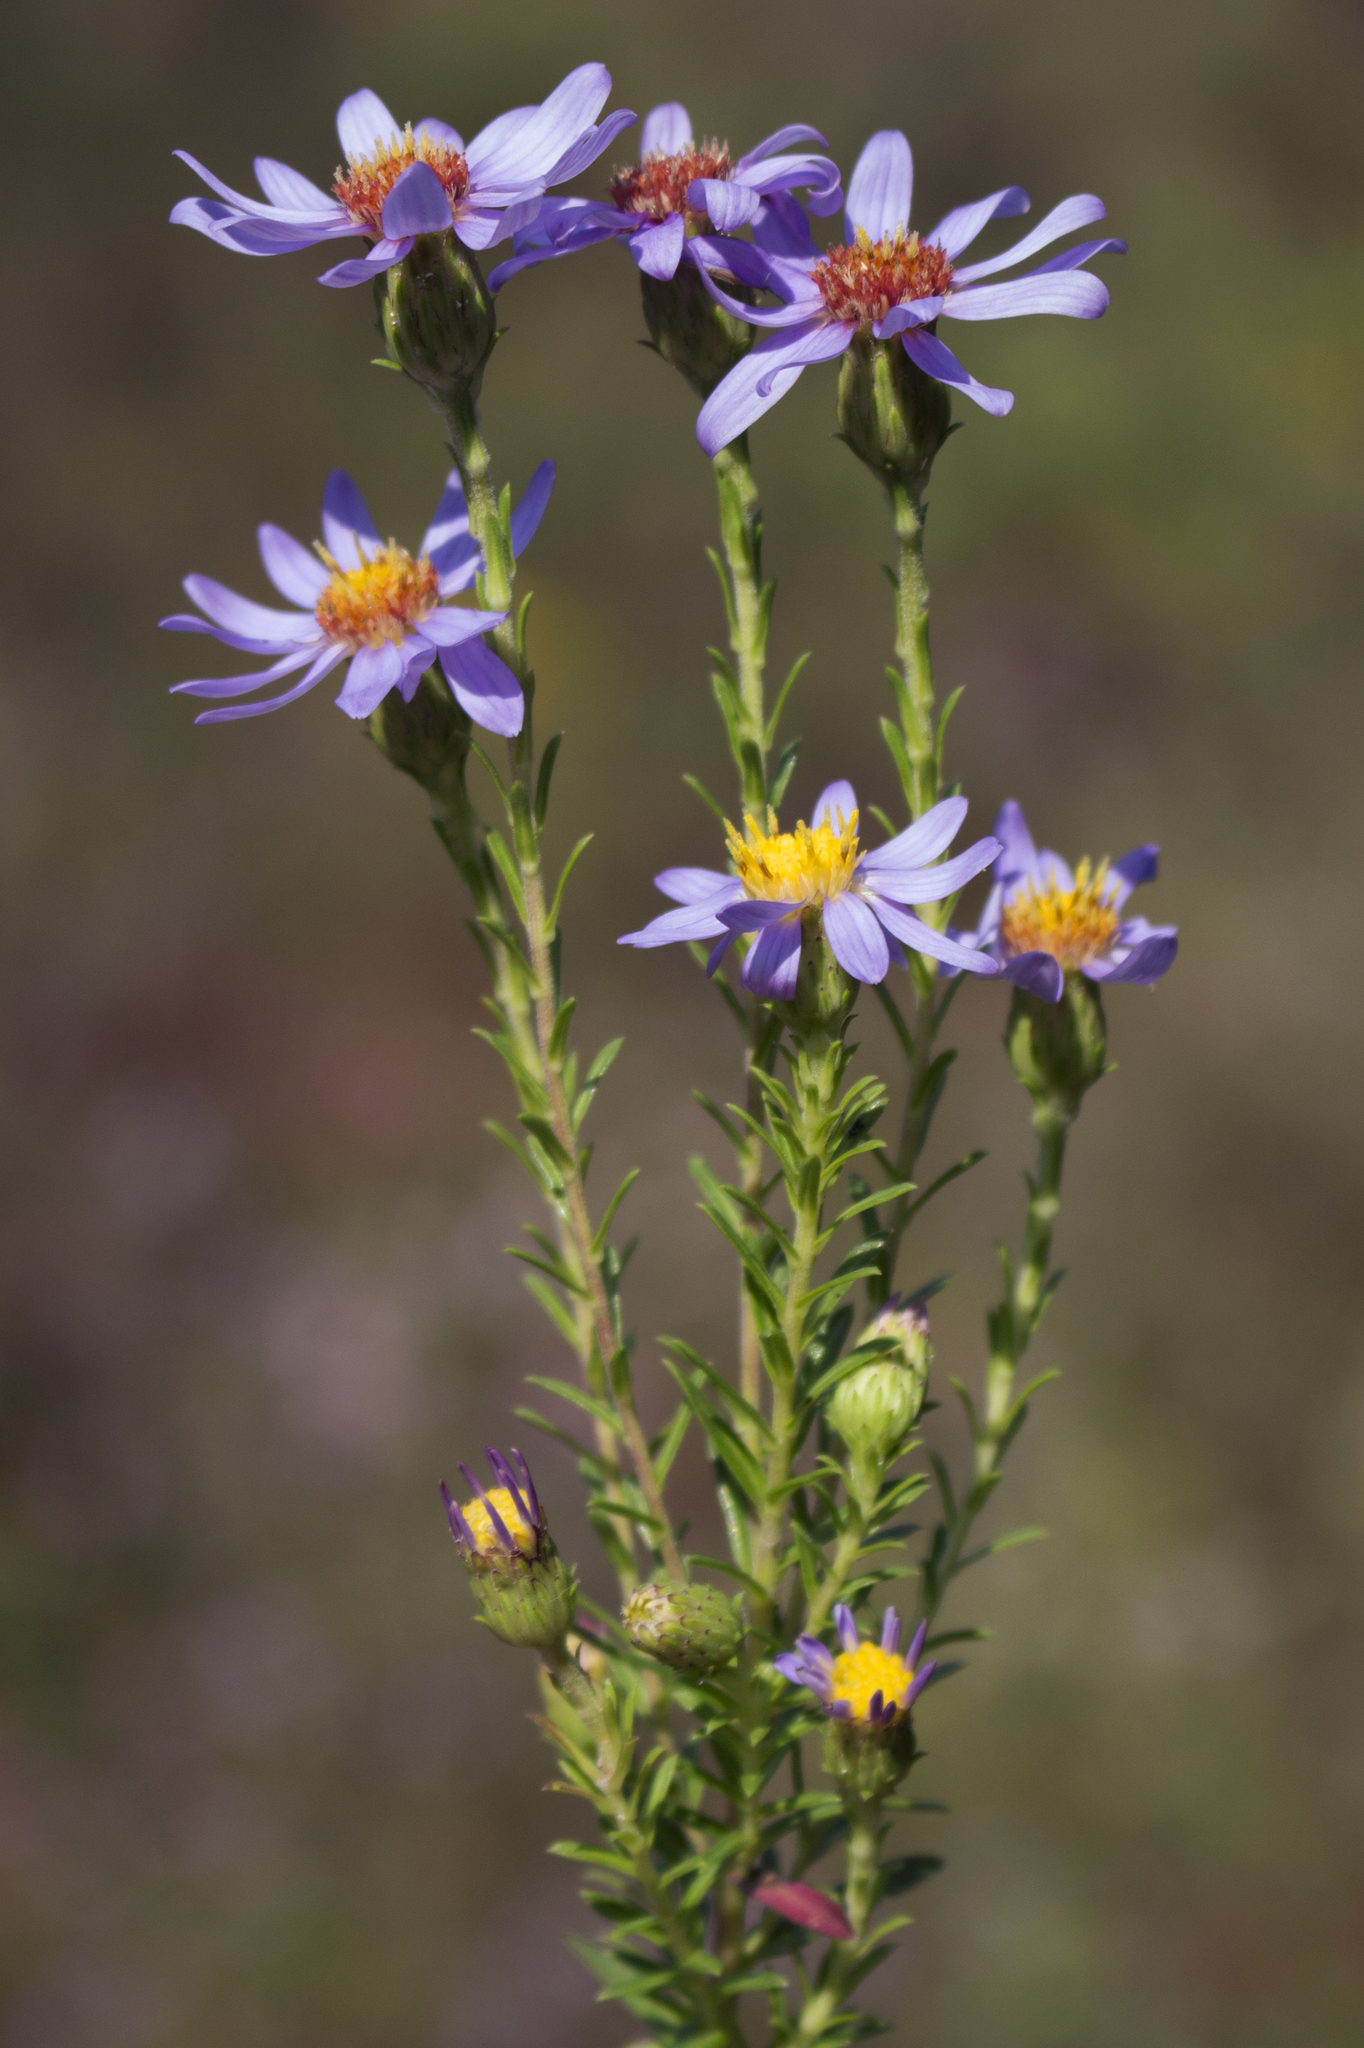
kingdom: Plantae
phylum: Tracheophyta
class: Magnoliopsida
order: Asterales
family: Asteraceae
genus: Ionactis
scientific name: Ionactis linariifolia
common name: Flax-leaf aster
